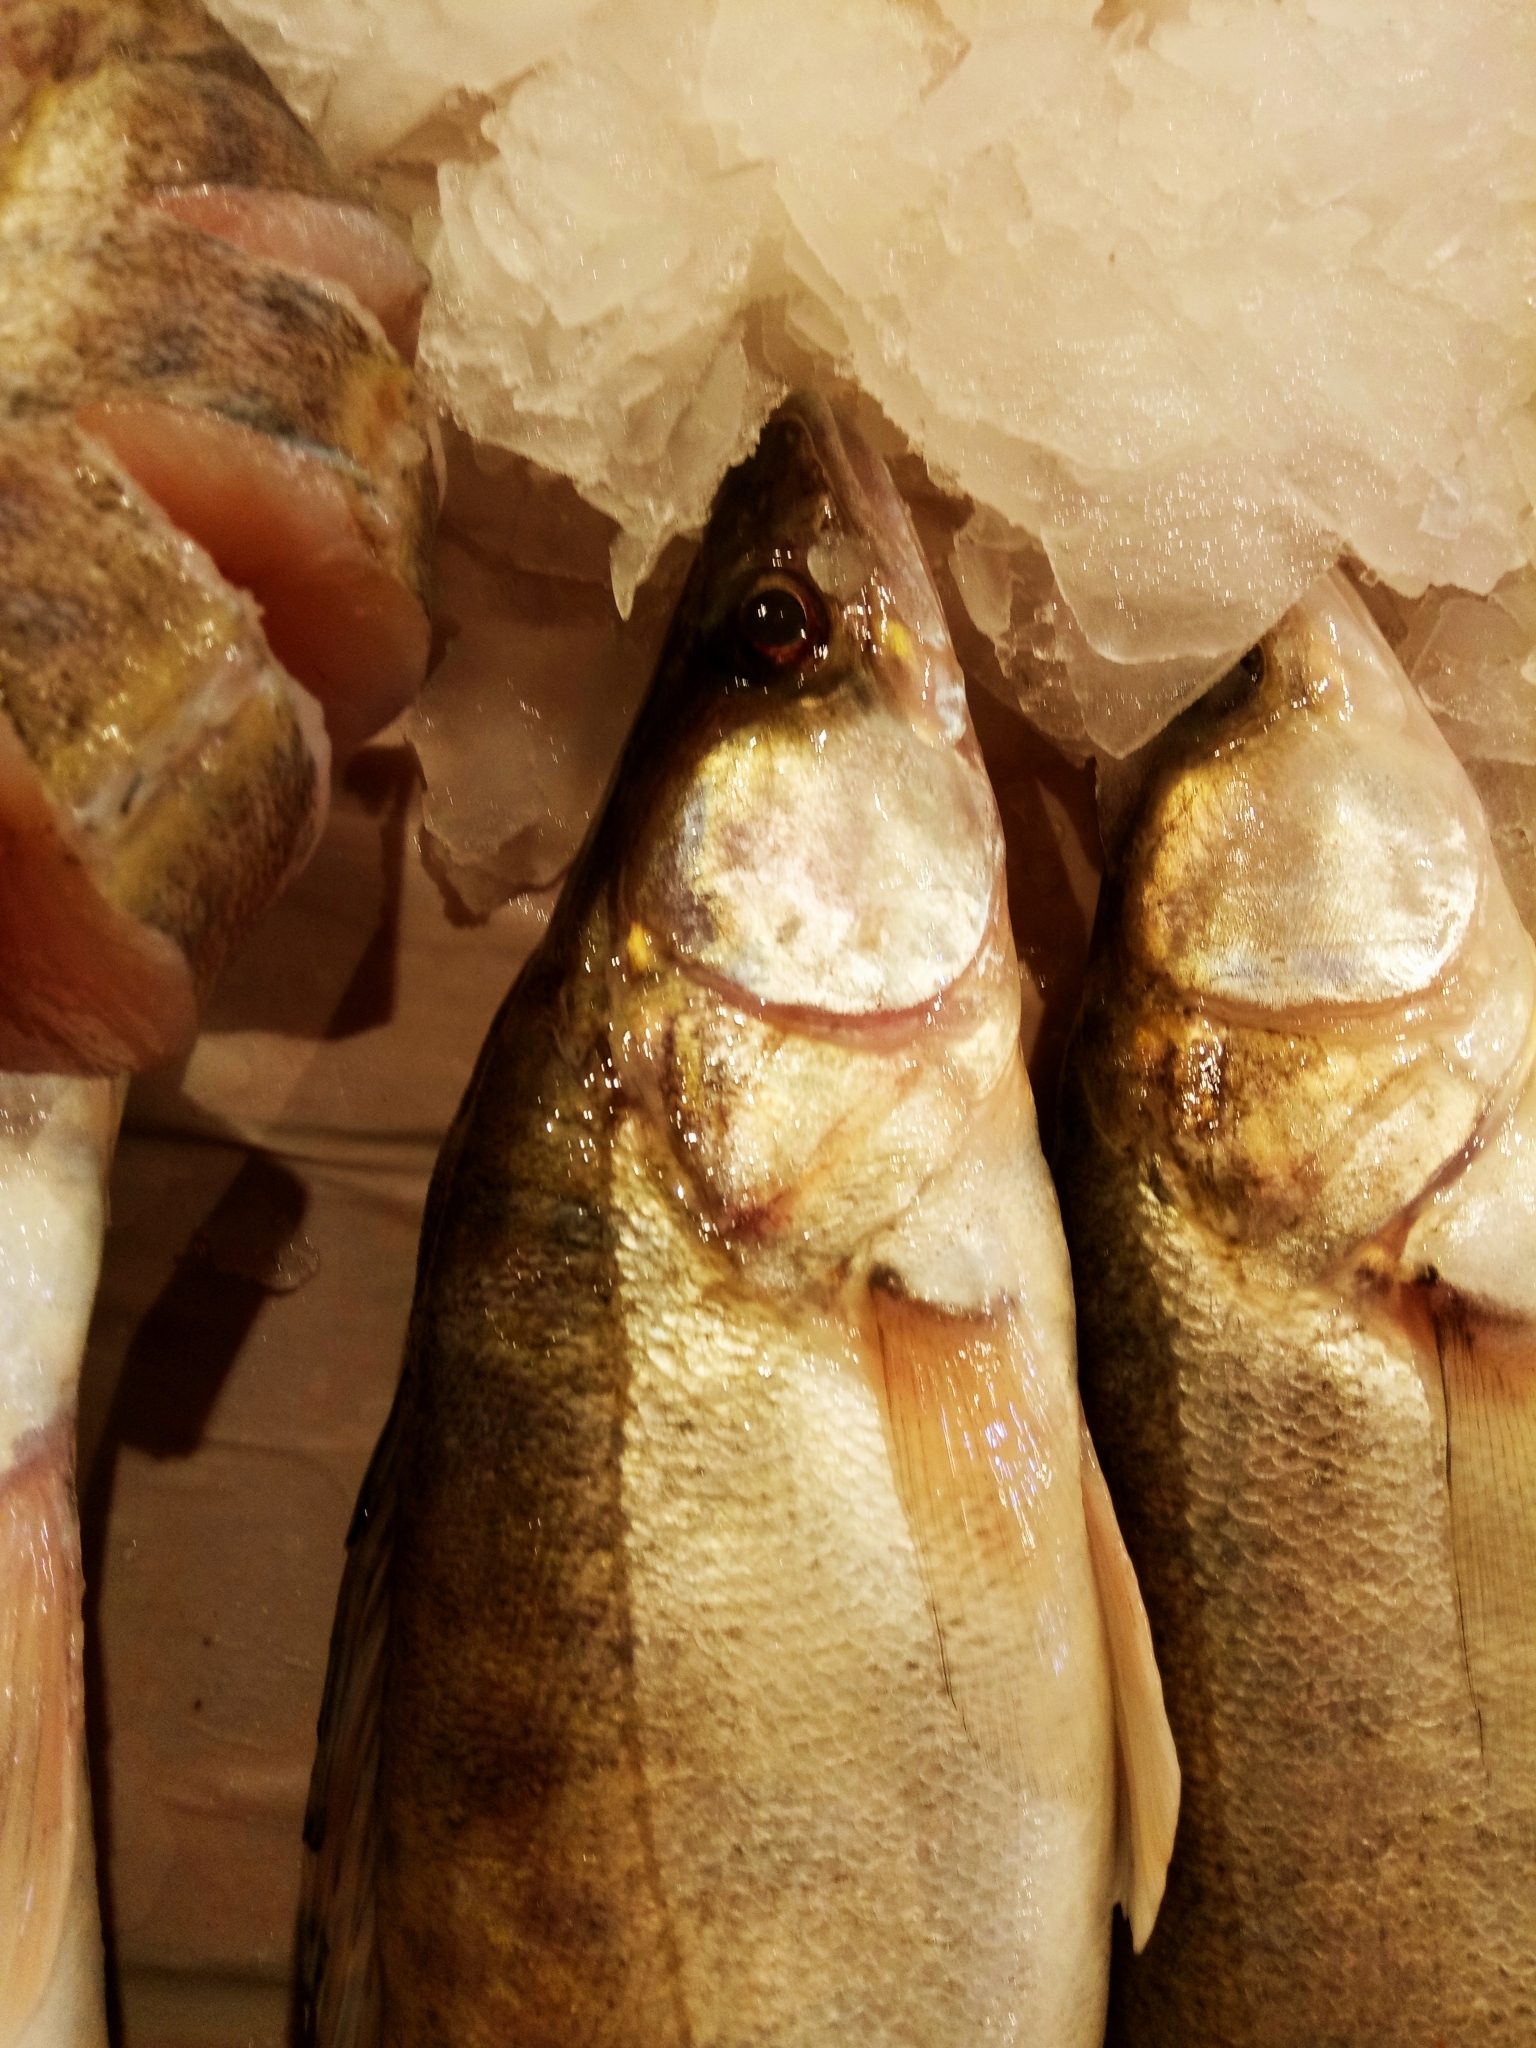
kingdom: Animalia
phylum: Chordata
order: Perciformes
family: Percidae
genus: Sander
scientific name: Sander lucioperca
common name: Pikeperch
